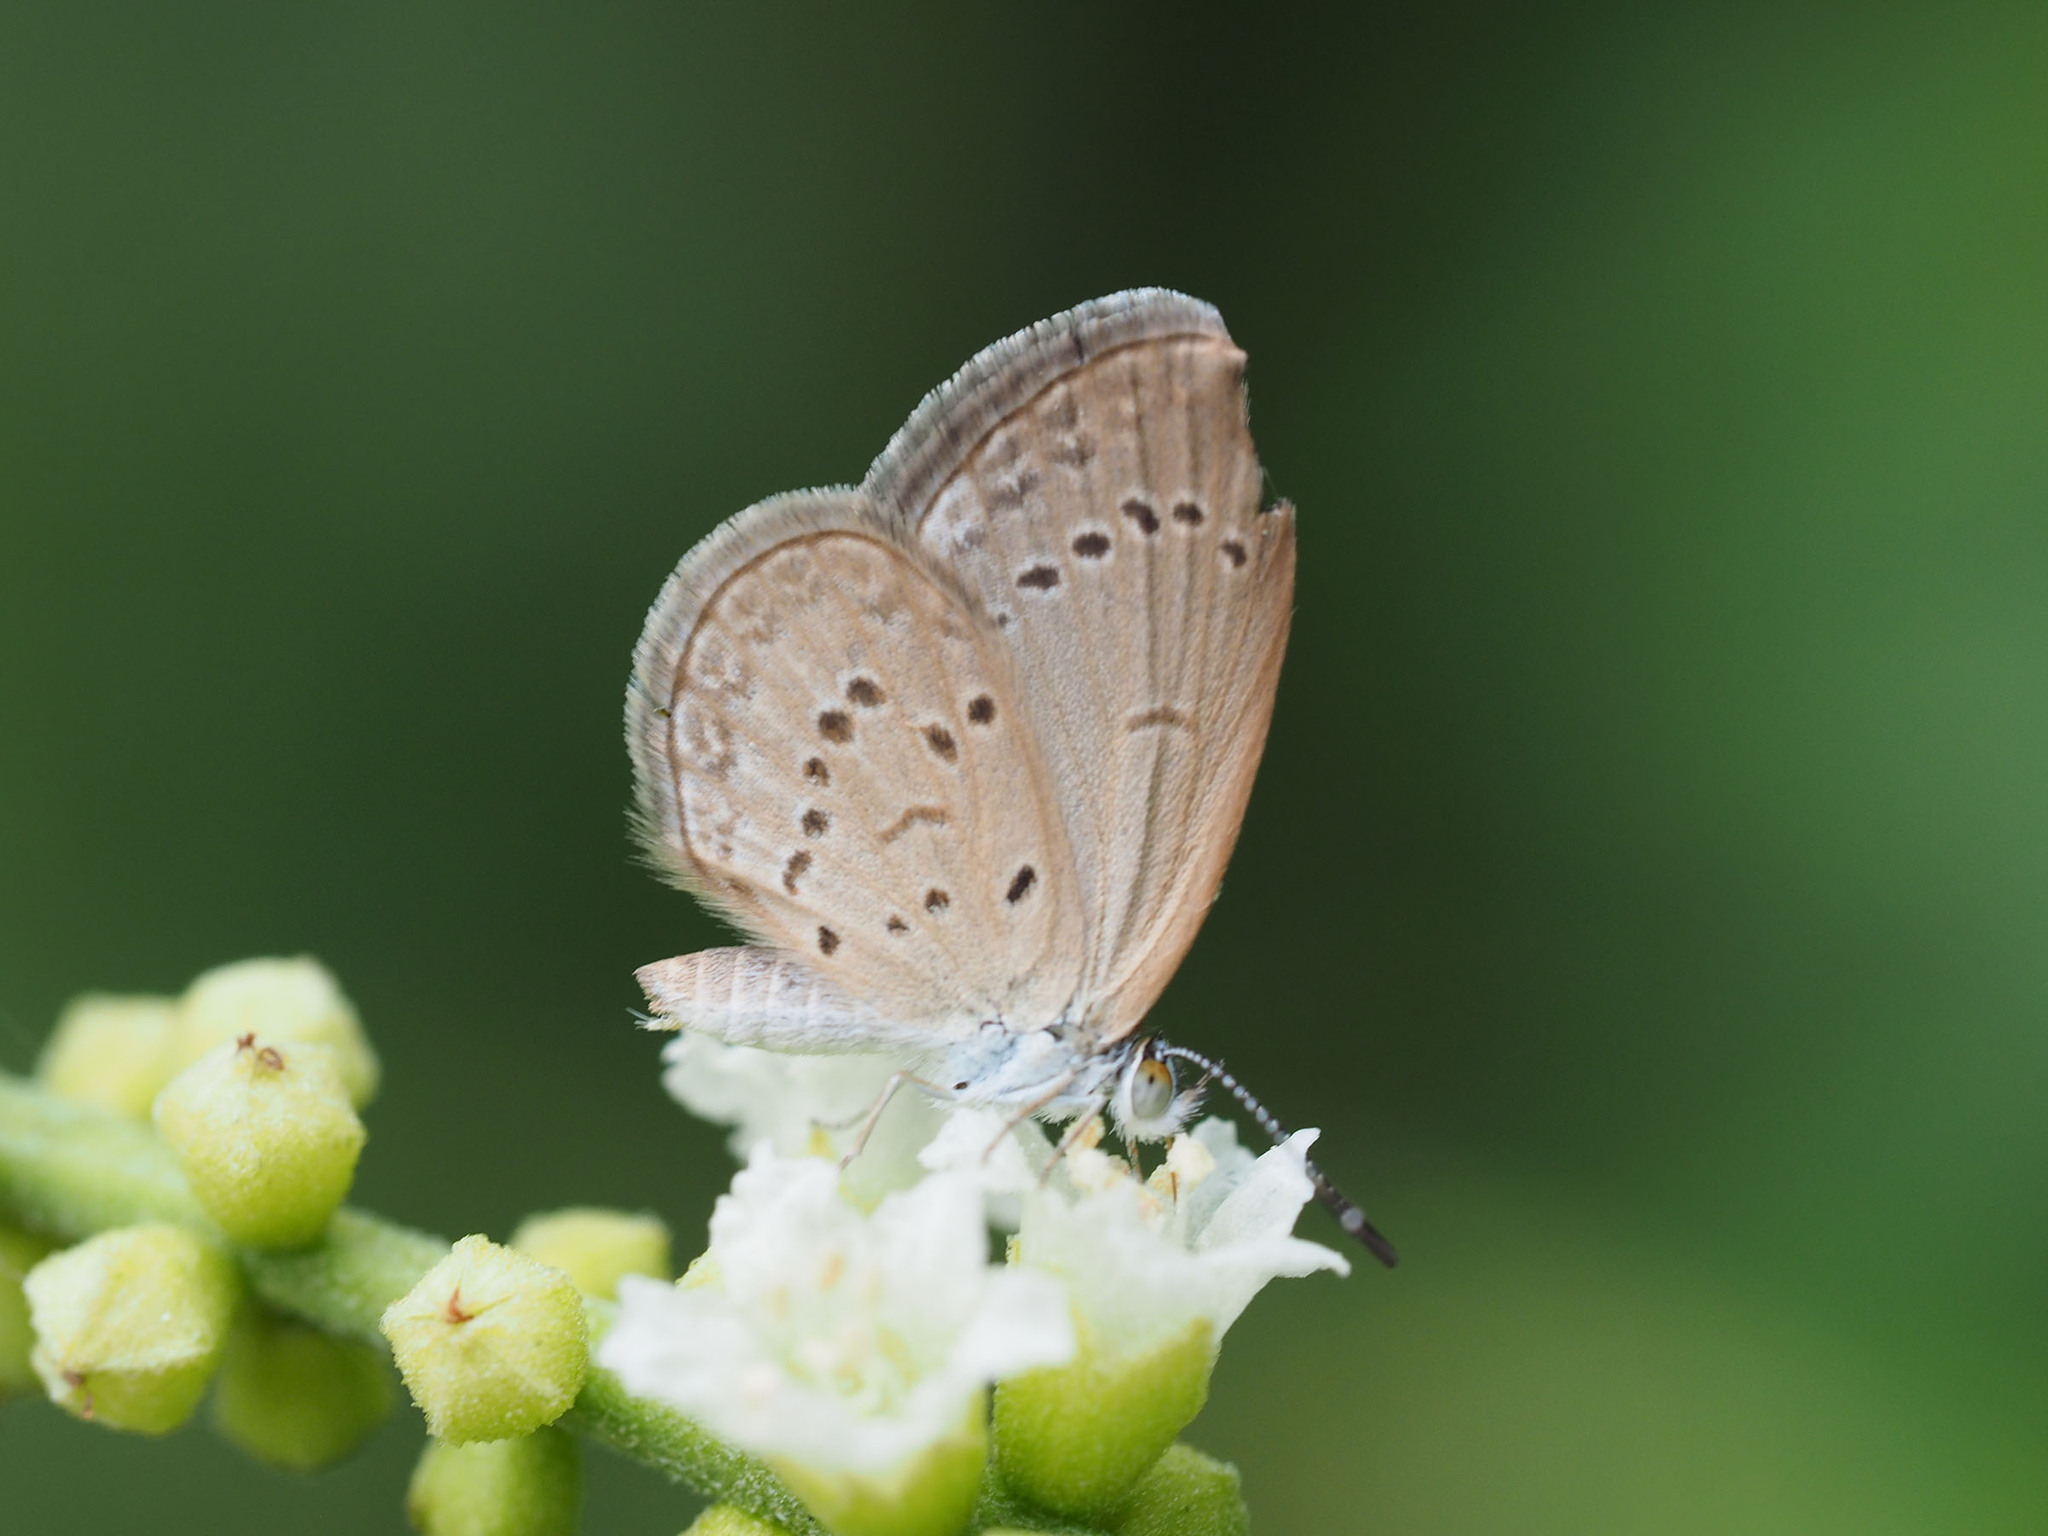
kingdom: Animalia
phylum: Arthropoda
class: Insecta
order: Lepidoptera
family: Lycaenidae
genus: Zizina
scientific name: Zizina otis
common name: Lesser grass blue
